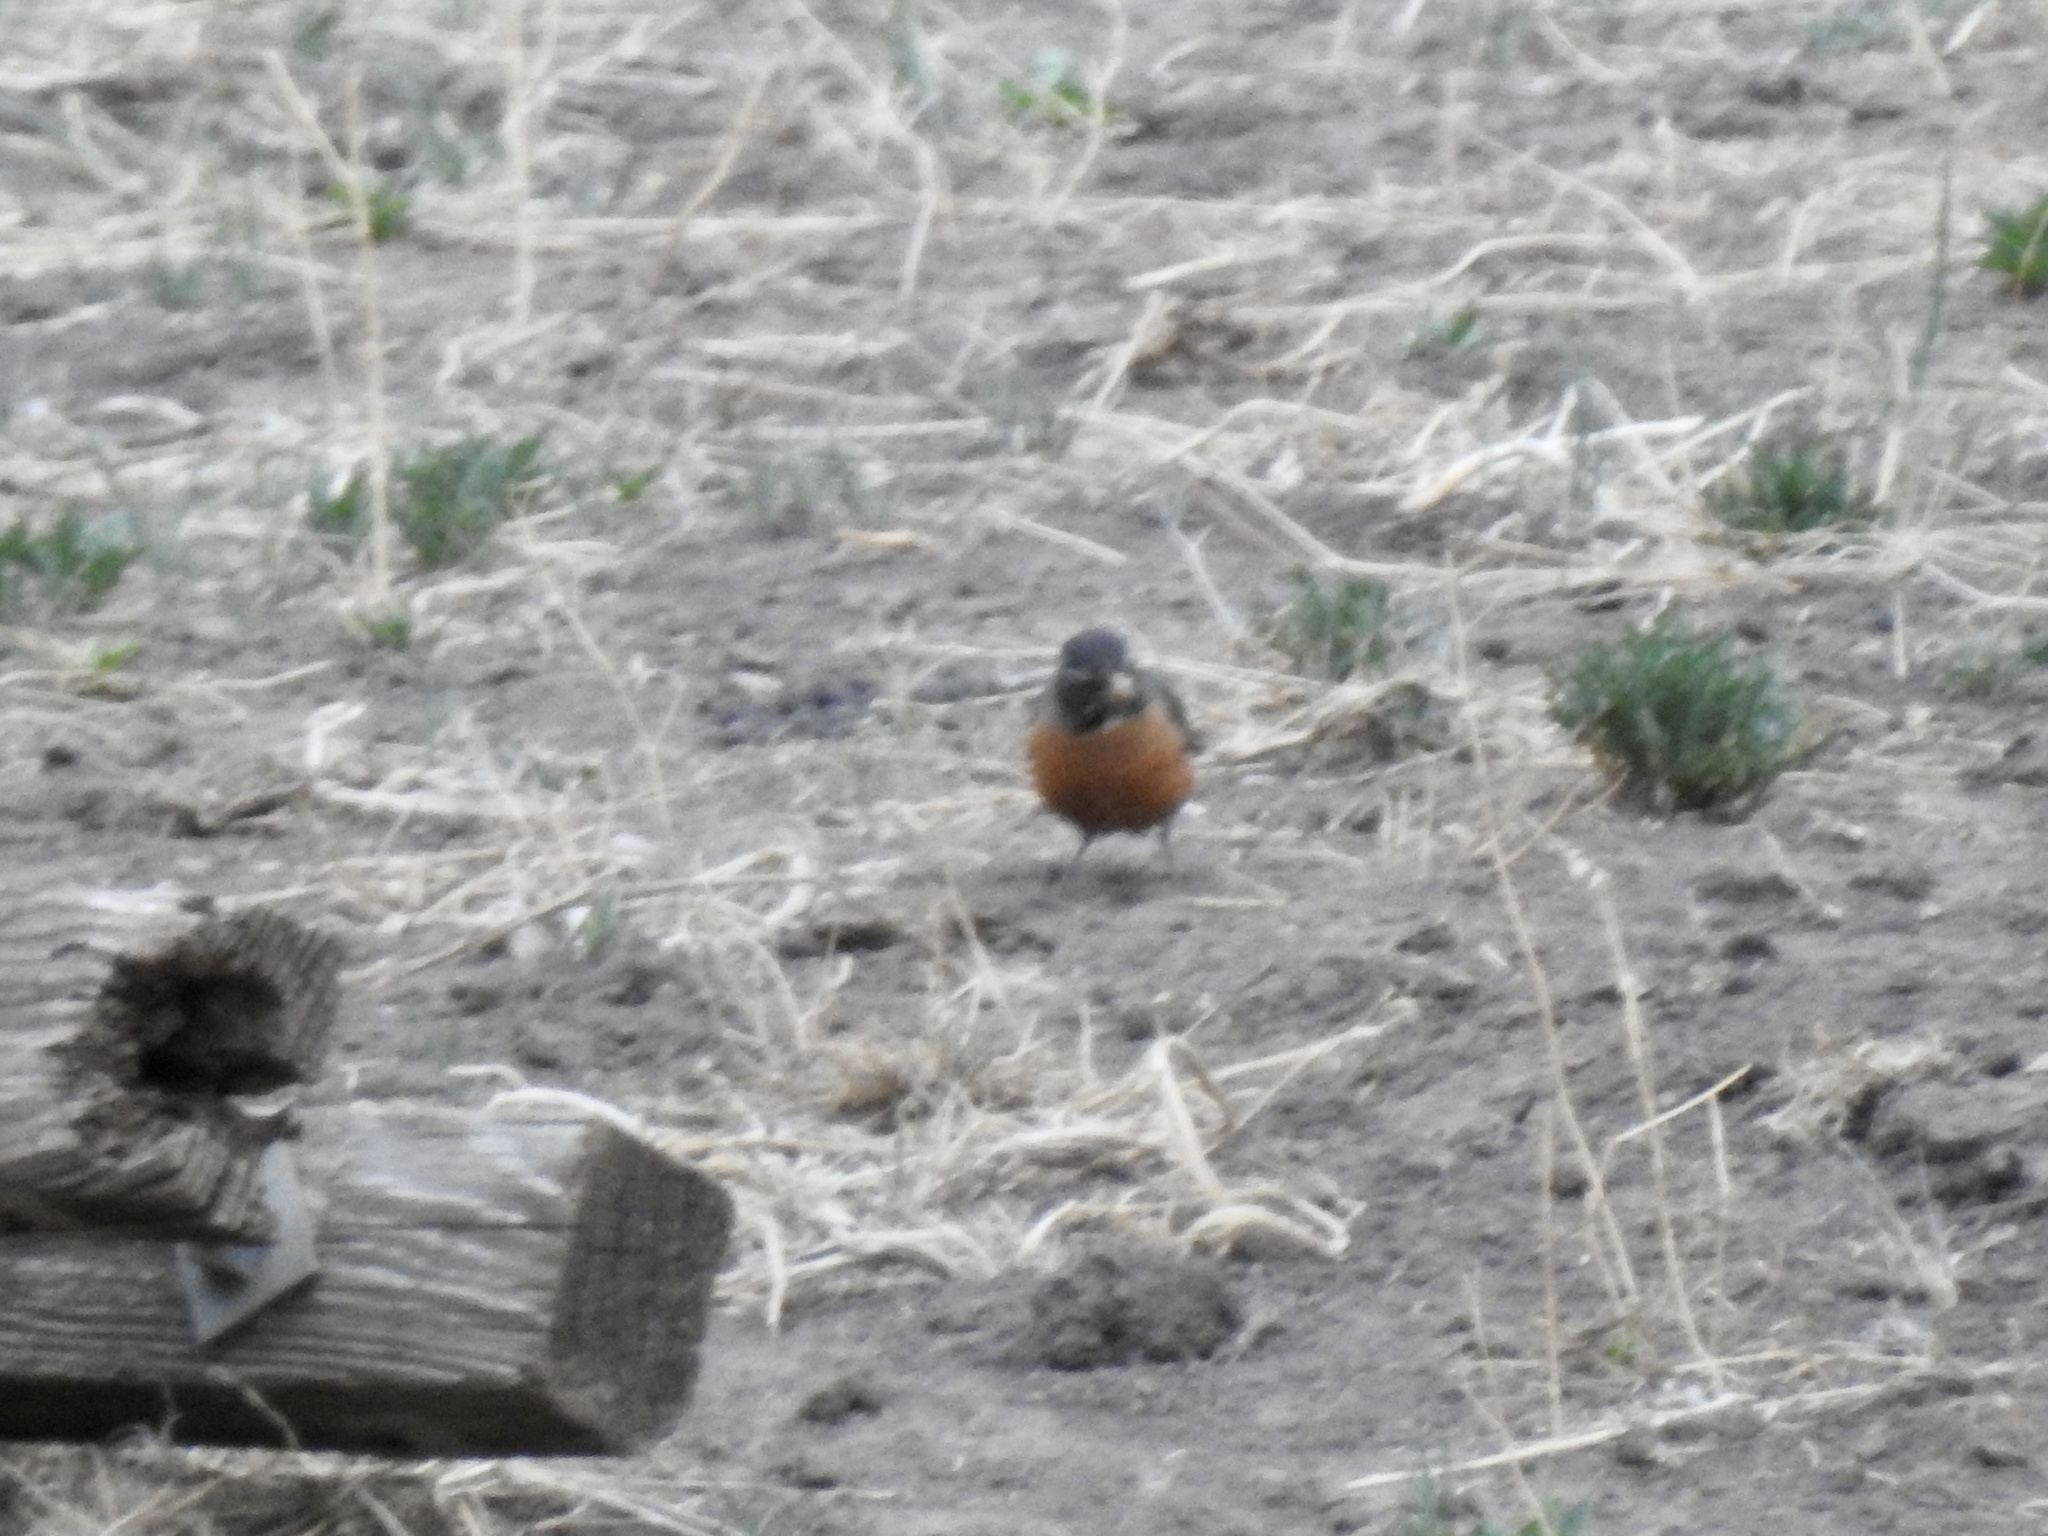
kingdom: Animalia
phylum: Chordata
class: Aves
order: Passeriformes
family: Turdidae
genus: Turdus
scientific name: Turdus migratorius
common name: American robin
